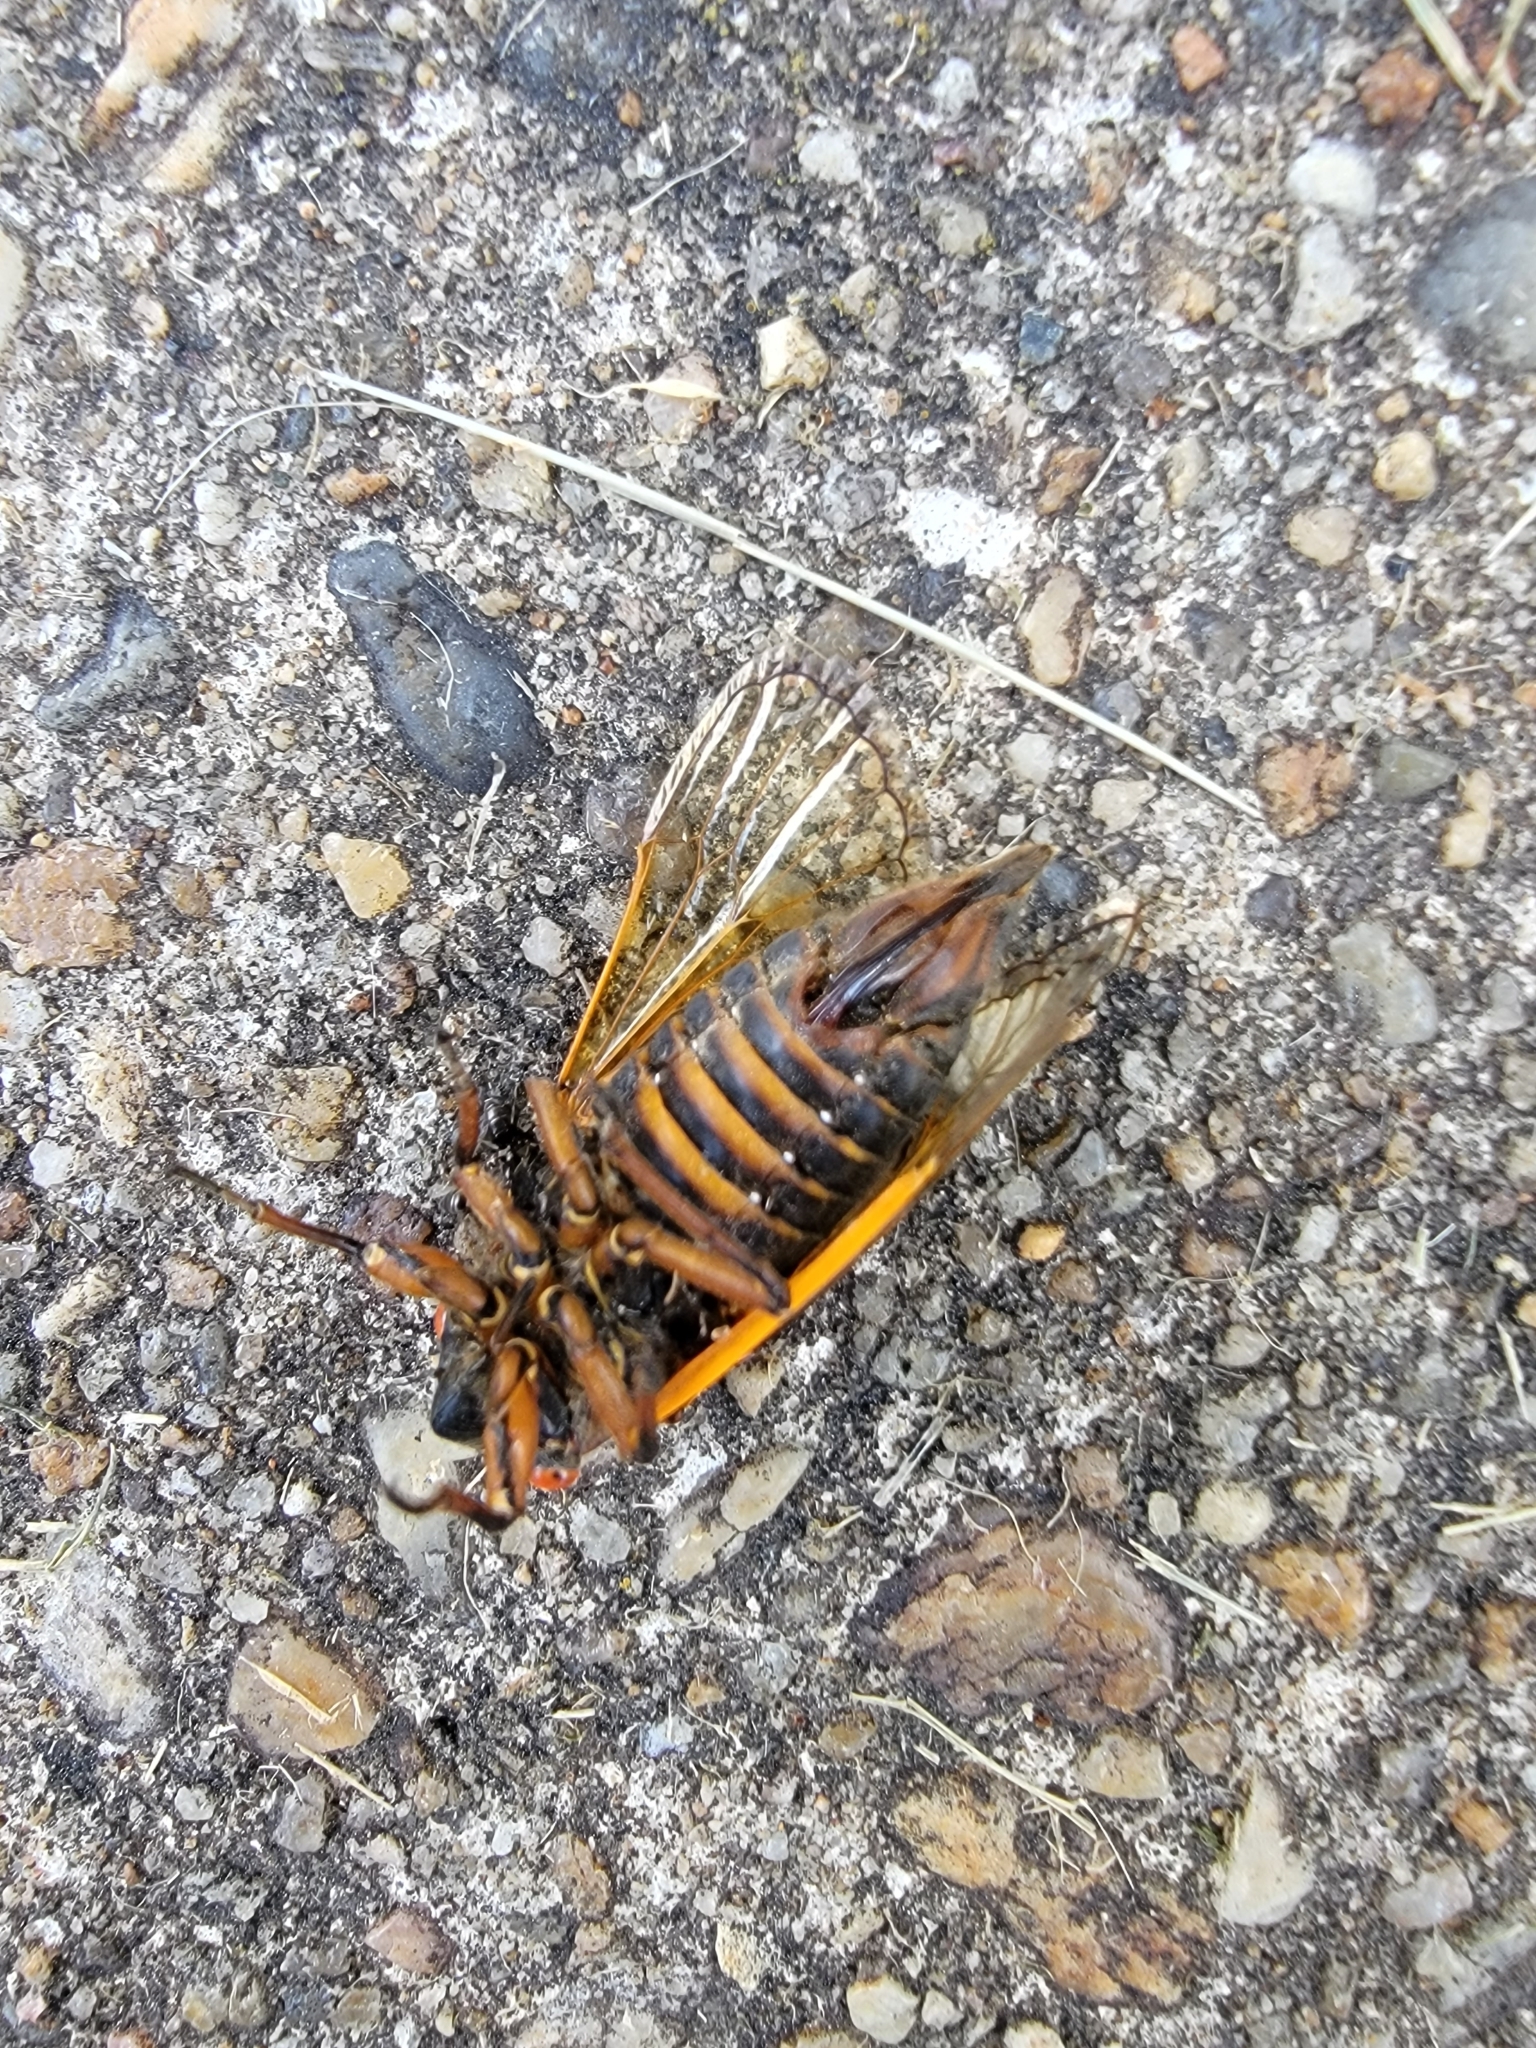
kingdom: Animalia
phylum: Arthropoda
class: Insecta
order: Hemiptera
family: Cicadidae
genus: Magicicada
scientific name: Magicicada septendecim
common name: Periodical cicada
